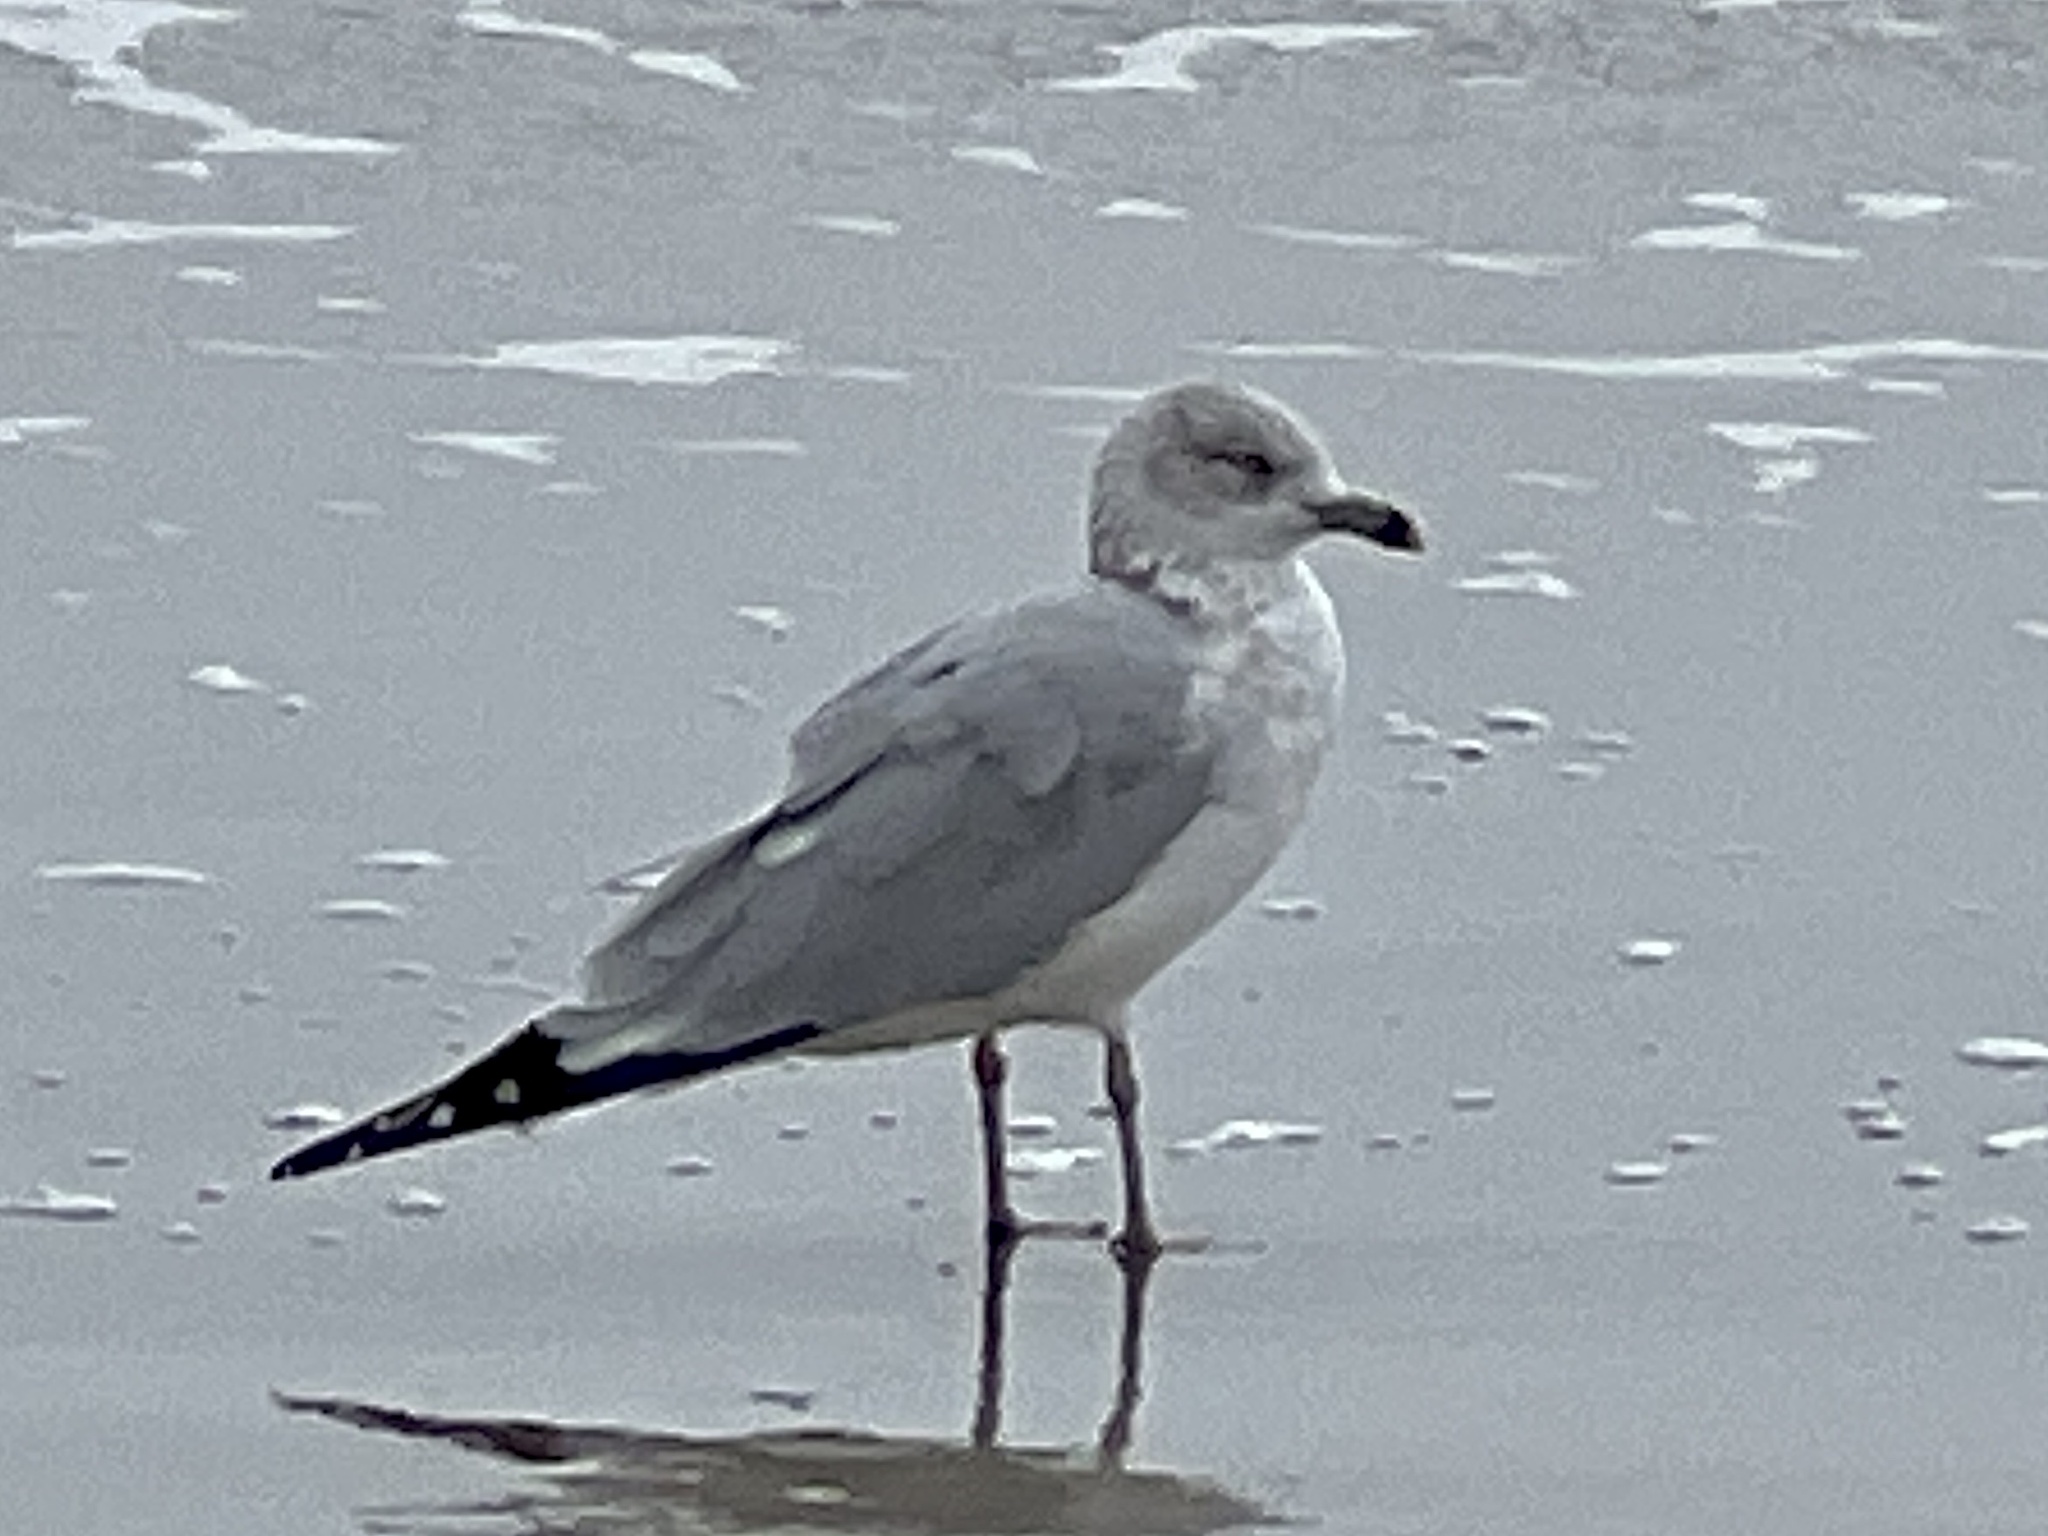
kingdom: Animalia
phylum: Chordata
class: Aves
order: Charadriiformes
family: Laridae
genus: Larus
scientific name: Larus delawarensis
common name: Ring-billed gull
